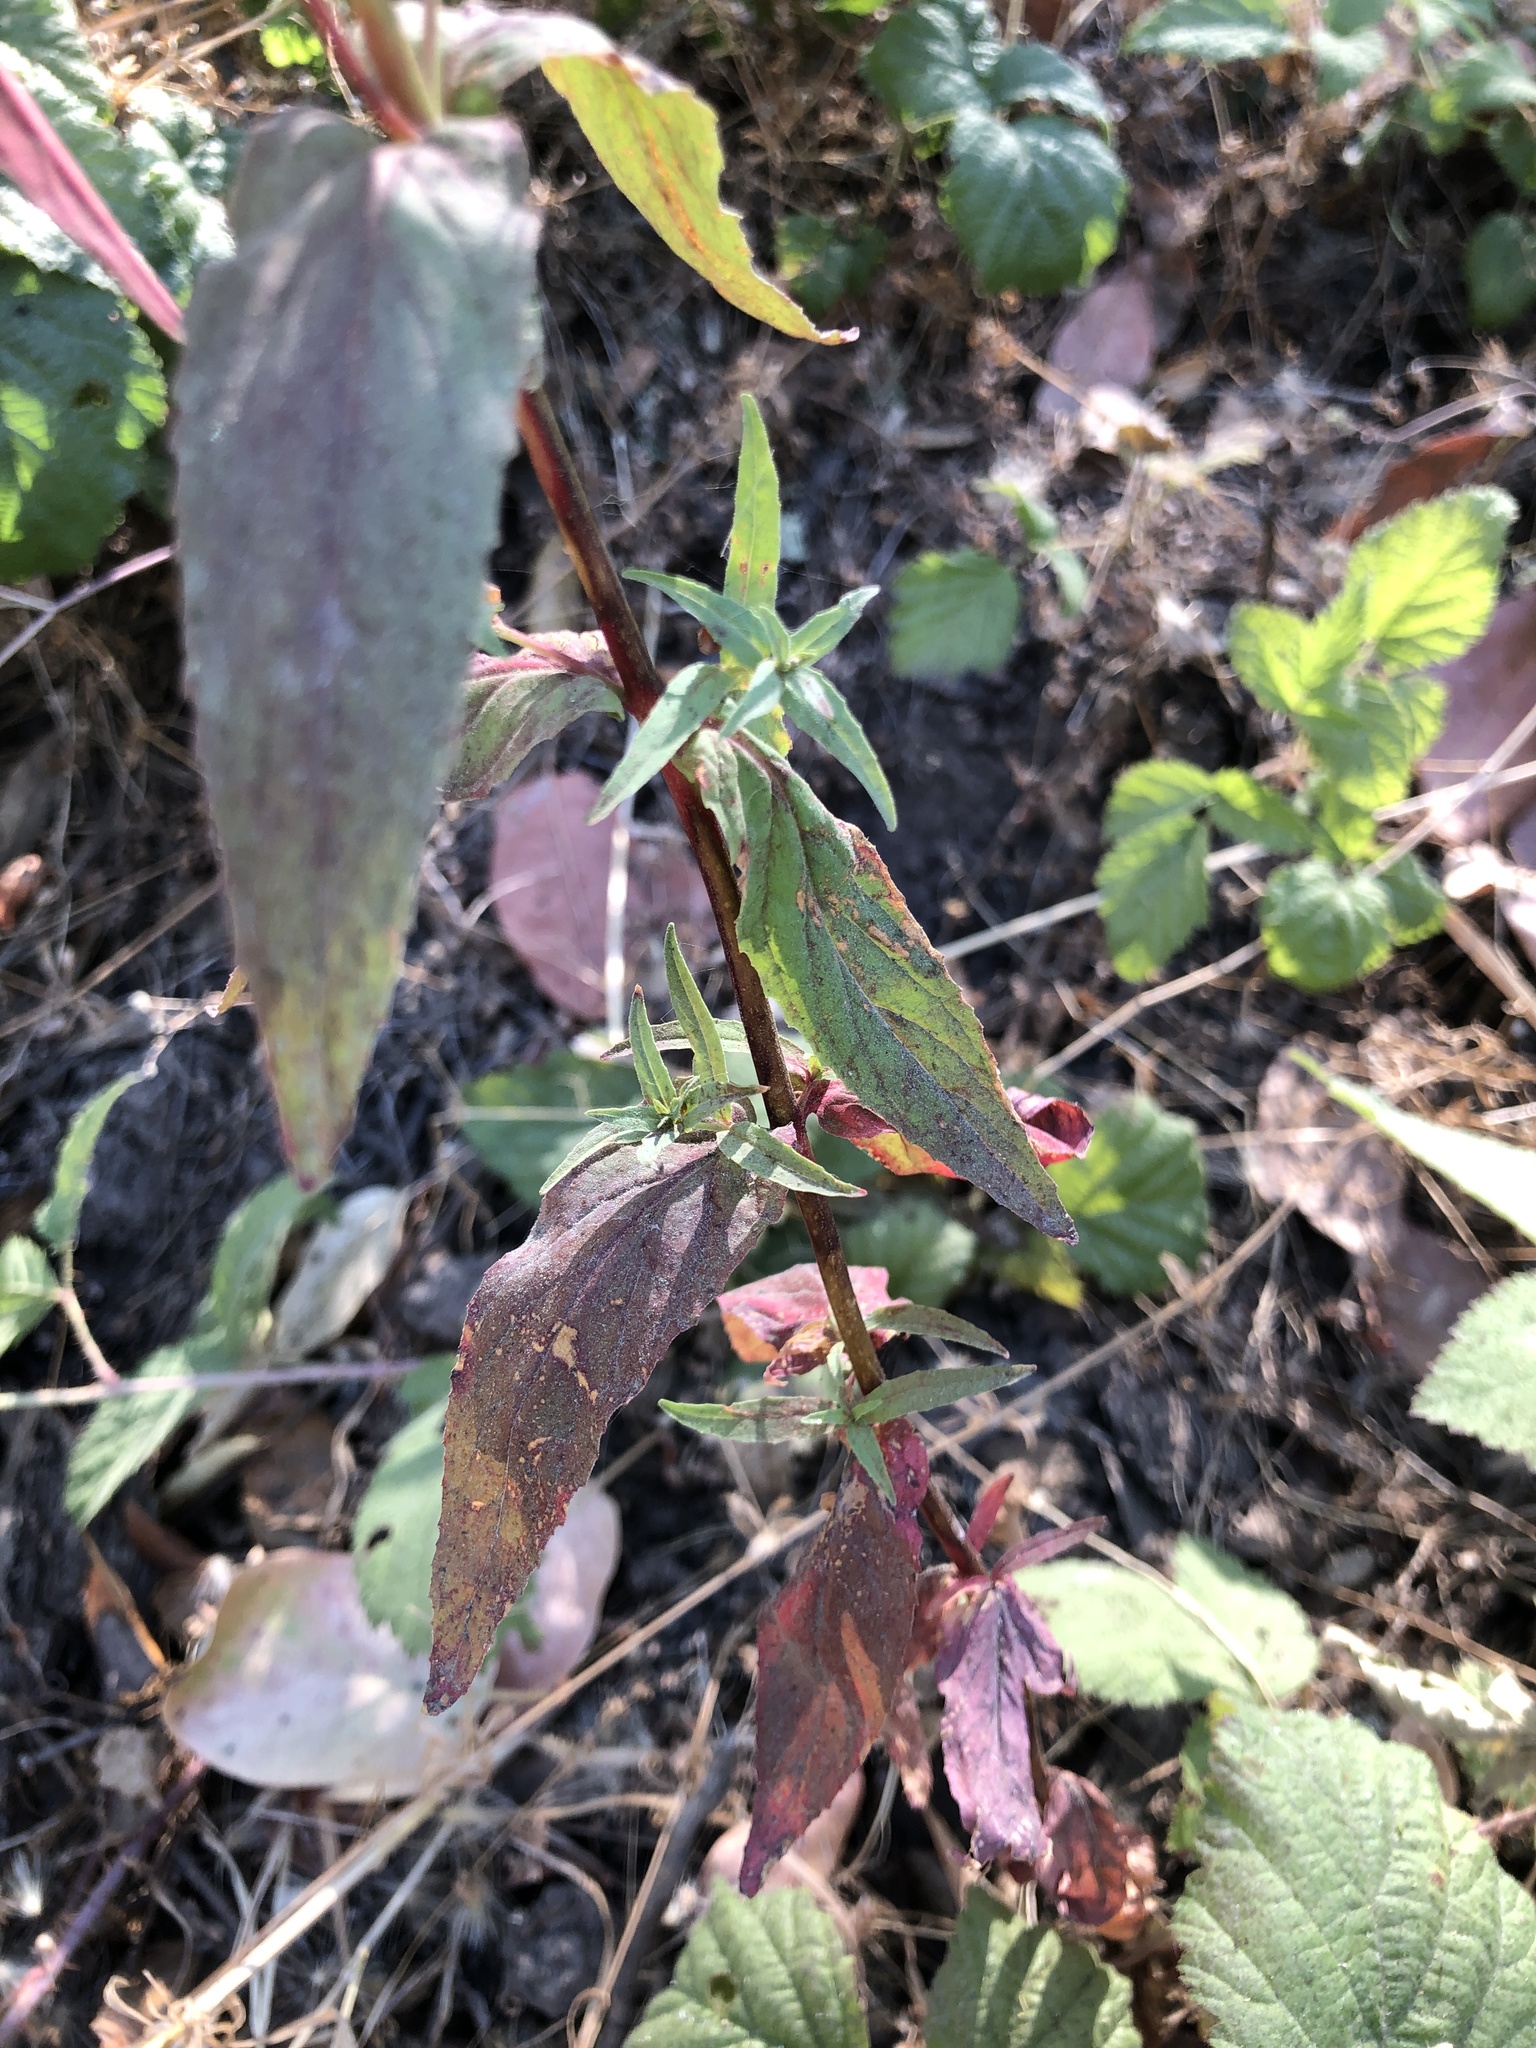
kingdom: Plantae
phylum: Tracheophyta
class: Magnoliopsida
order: Myrtales
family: Onagraceae
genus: Epilobium
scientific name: Epilobium ciliatum
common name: American willowherb
